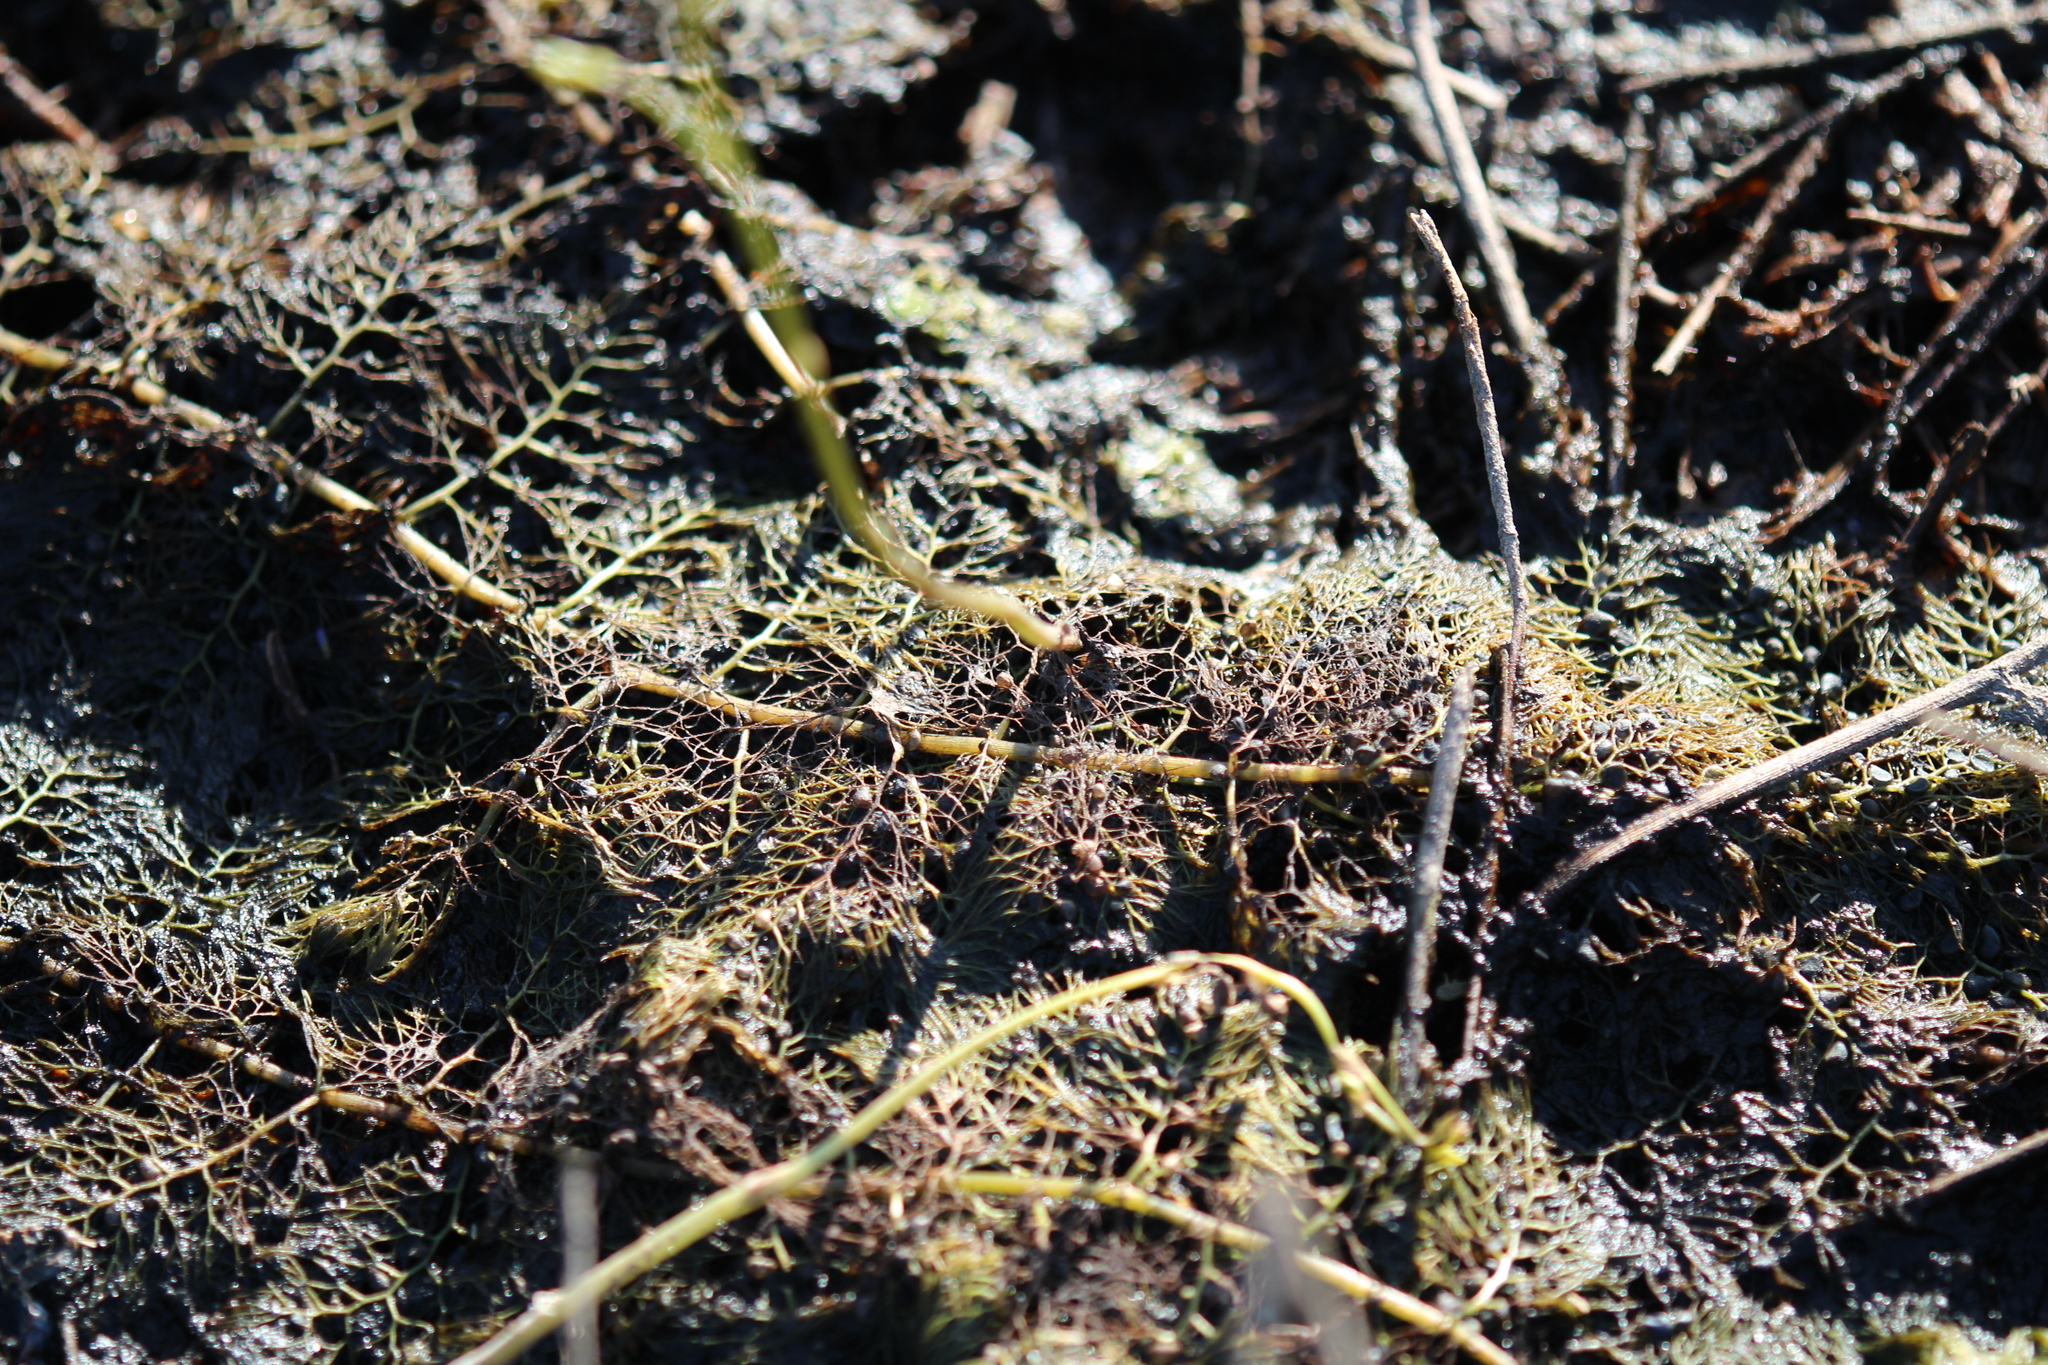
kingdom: Plantae
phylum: Tracheophyta
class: Magnoliopsida
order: Lamiales
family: Lentibulariaceae
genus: Utricularia
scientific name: Utricularia macrorhiza
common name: Common bladderwort
